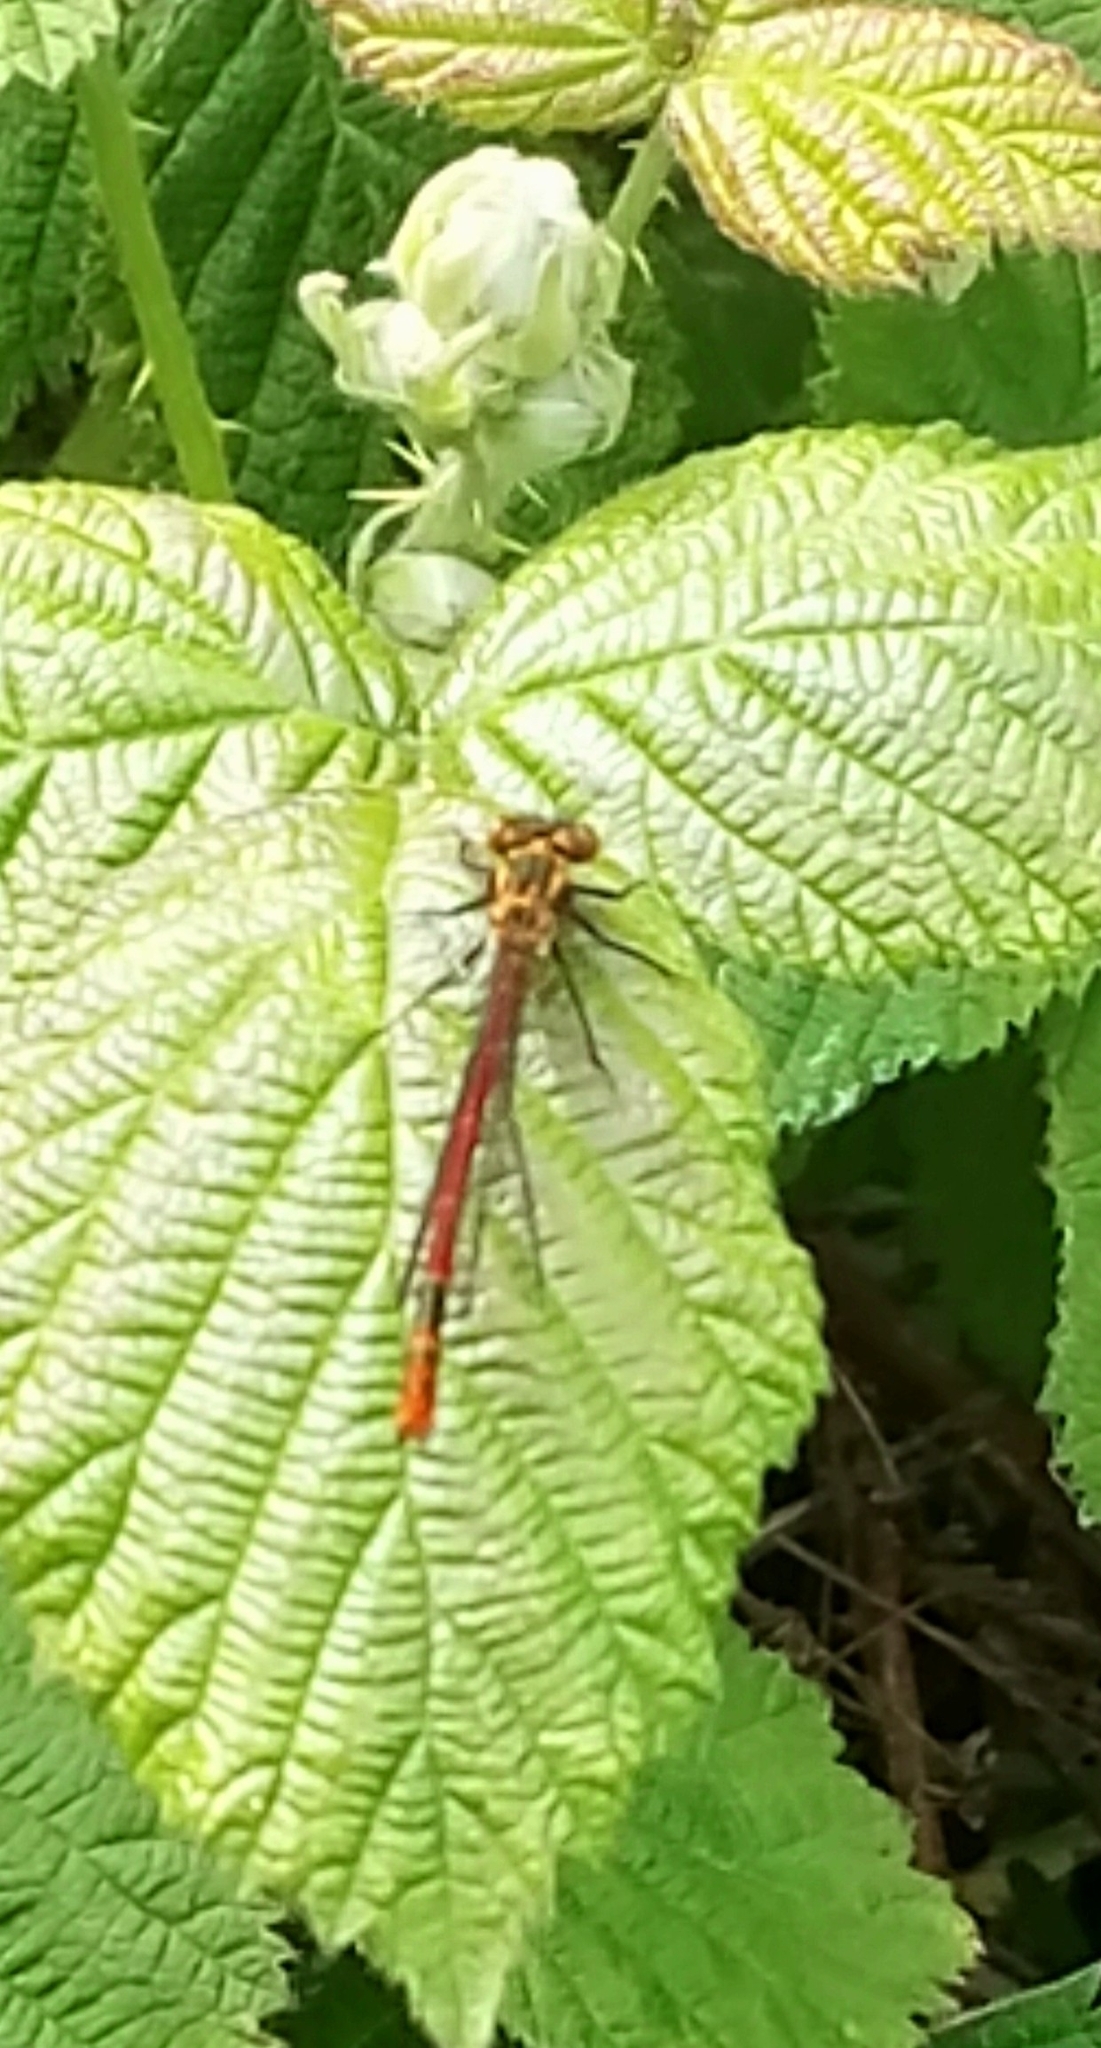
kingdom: Animalia
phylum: Arthropoda
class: Insecta
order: Odonata
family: Coenagrionidae
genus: Pyrrhosoma
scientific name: Pyrrhosoma nymphula
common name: Large red damsel
